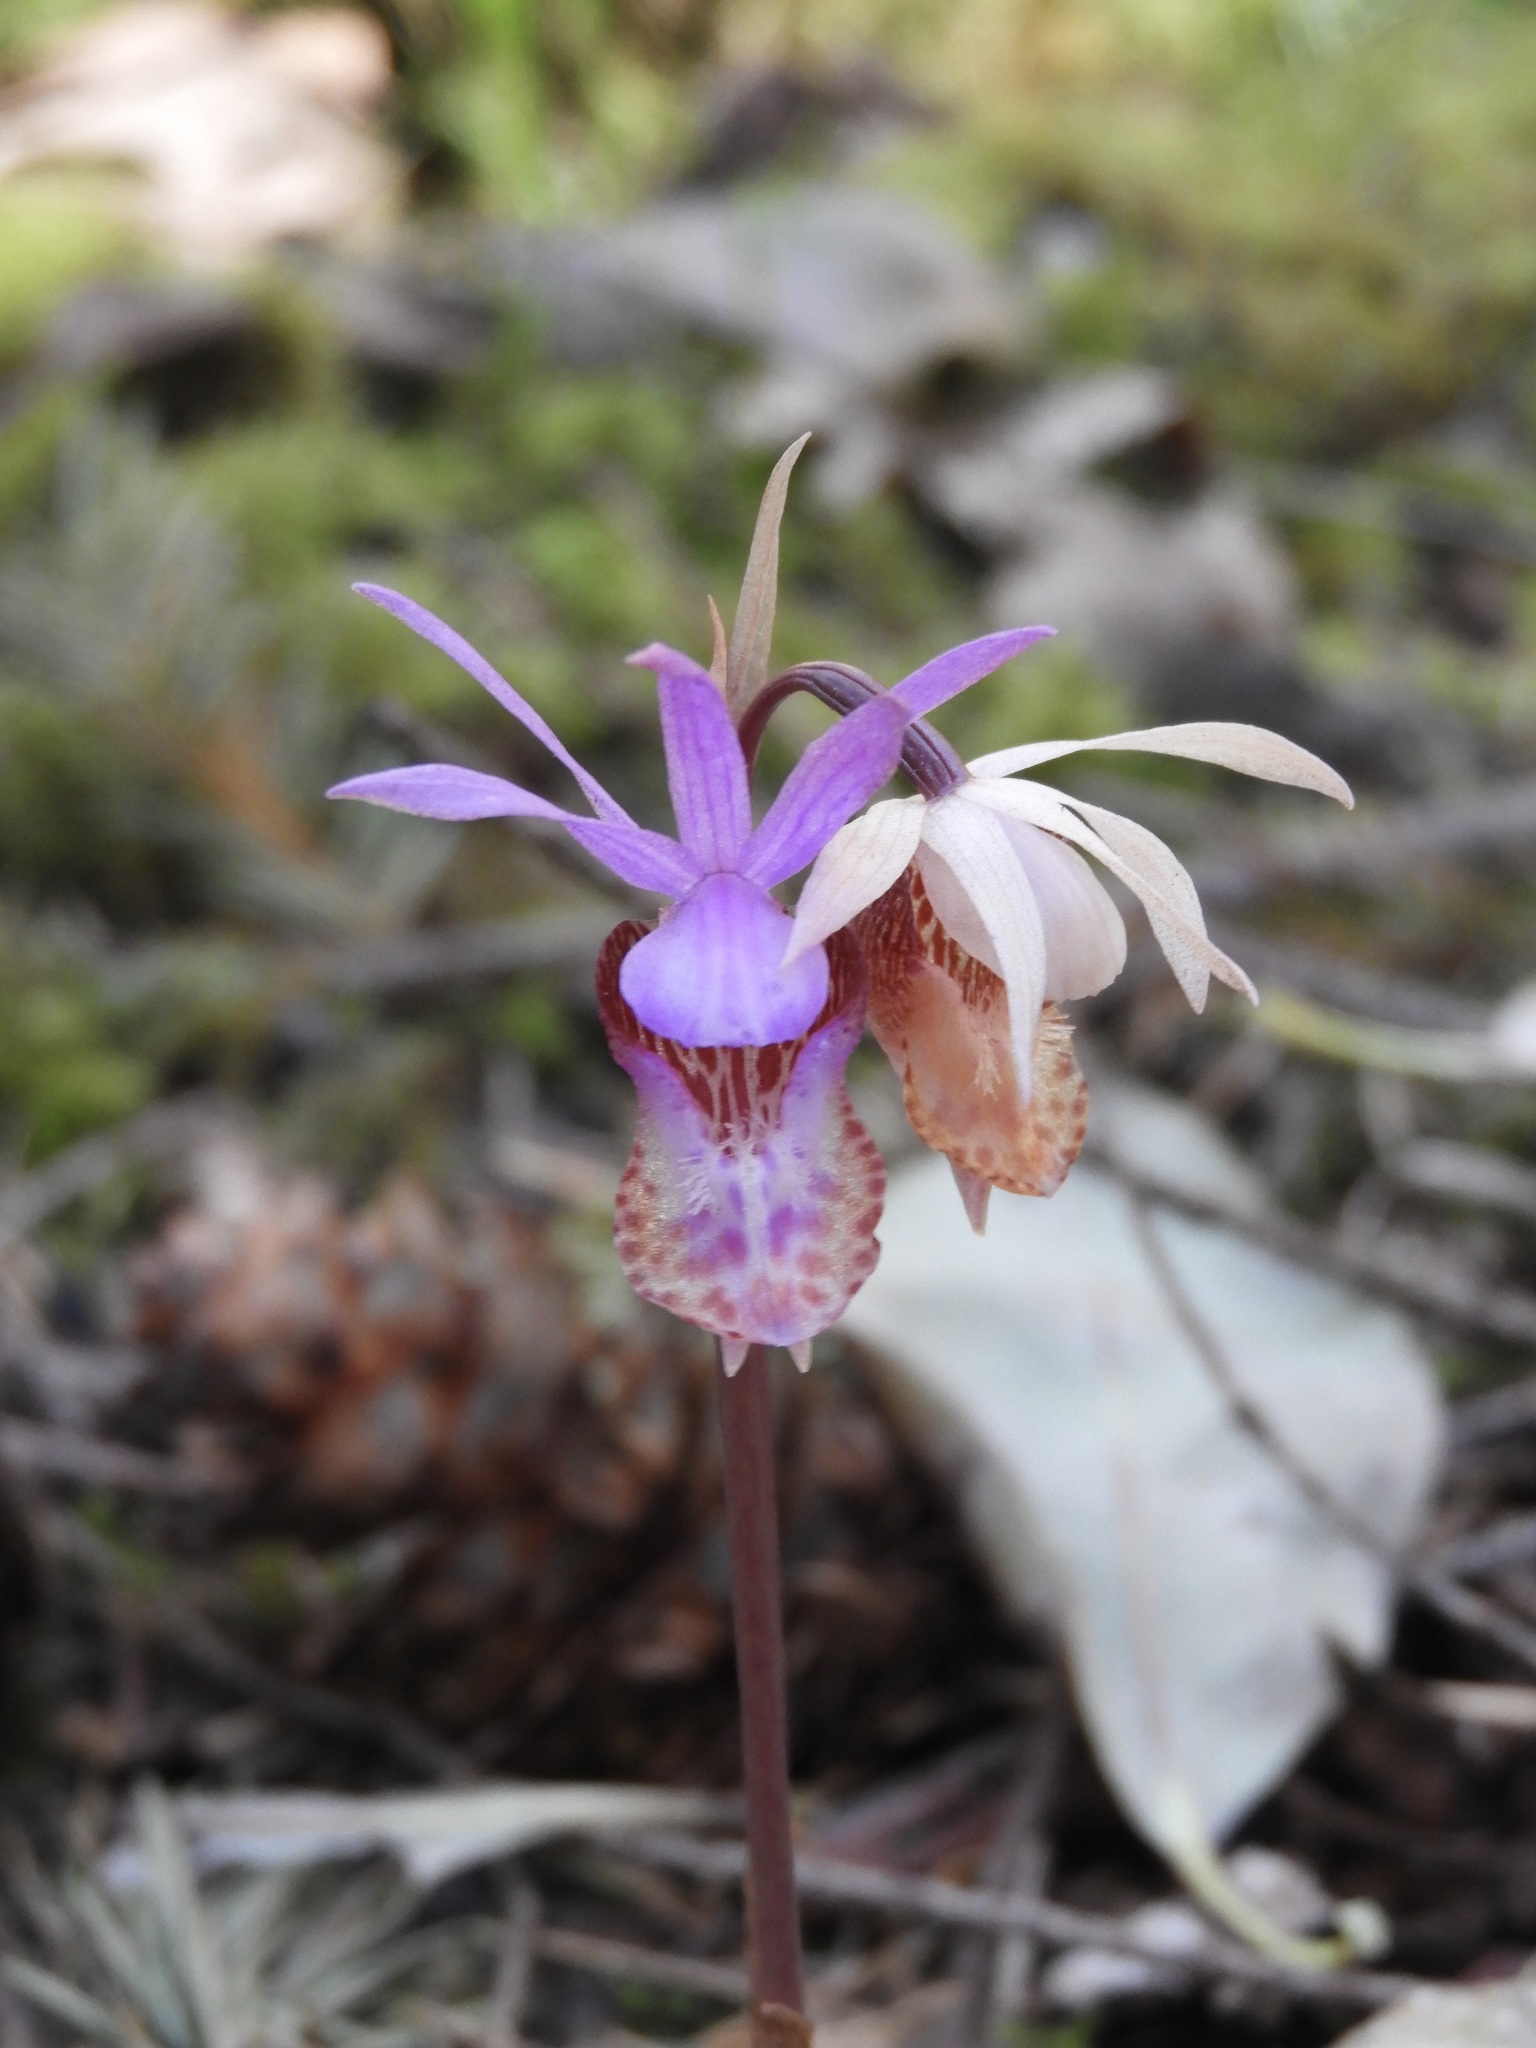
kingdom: Plantae
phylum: Tracheophyta
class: Liliopsida
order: Asparagales
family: Orchidaceae
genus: Calypso
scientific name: Calypso bulbosa
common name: Calypso
